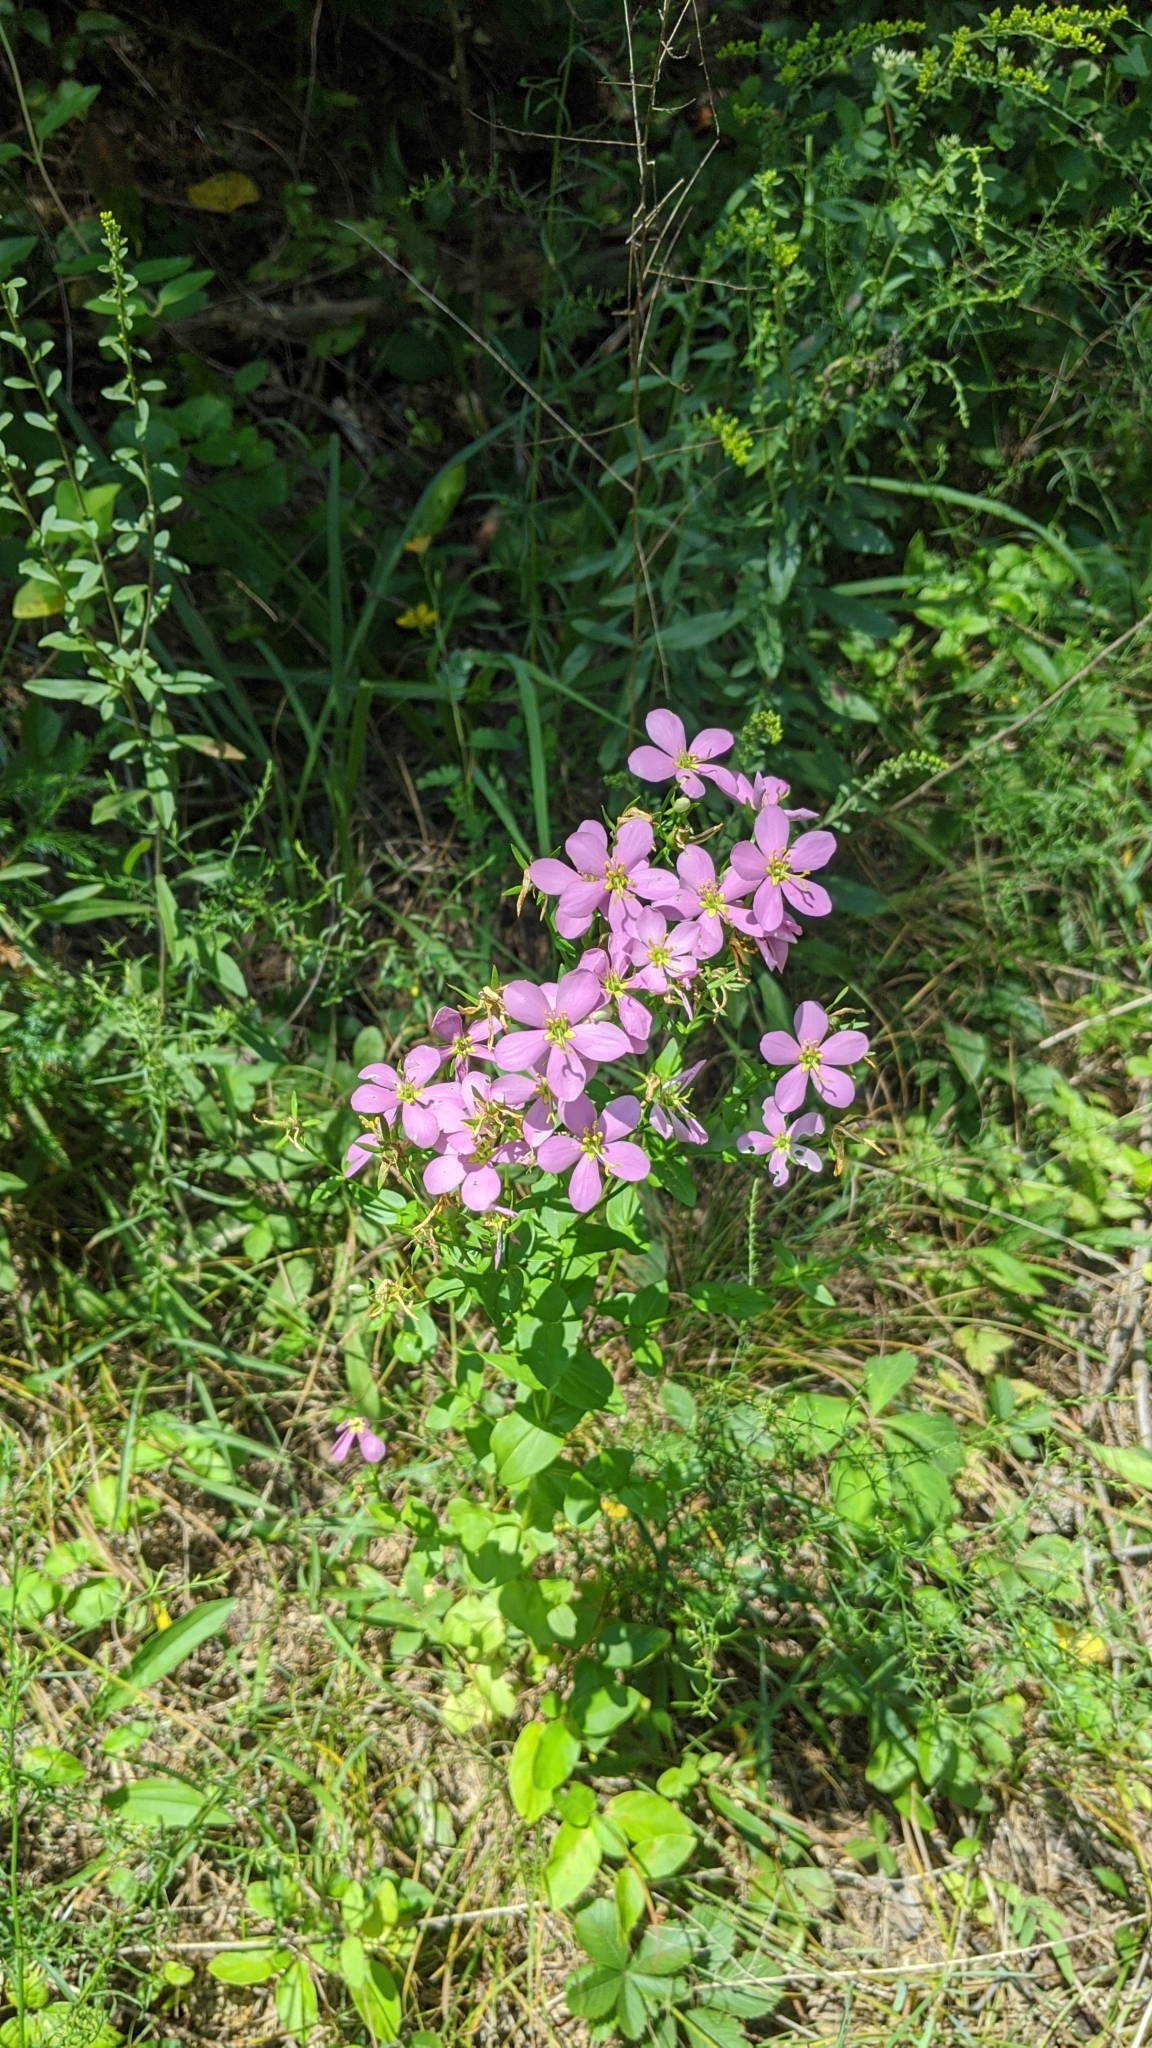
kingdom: Plantae
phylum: Tracheophyta
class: Magnoliopsida
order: Gentianales
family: Gentianaceae
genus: Sabatia
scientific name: Sabatia angularis
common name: Rose-pink
